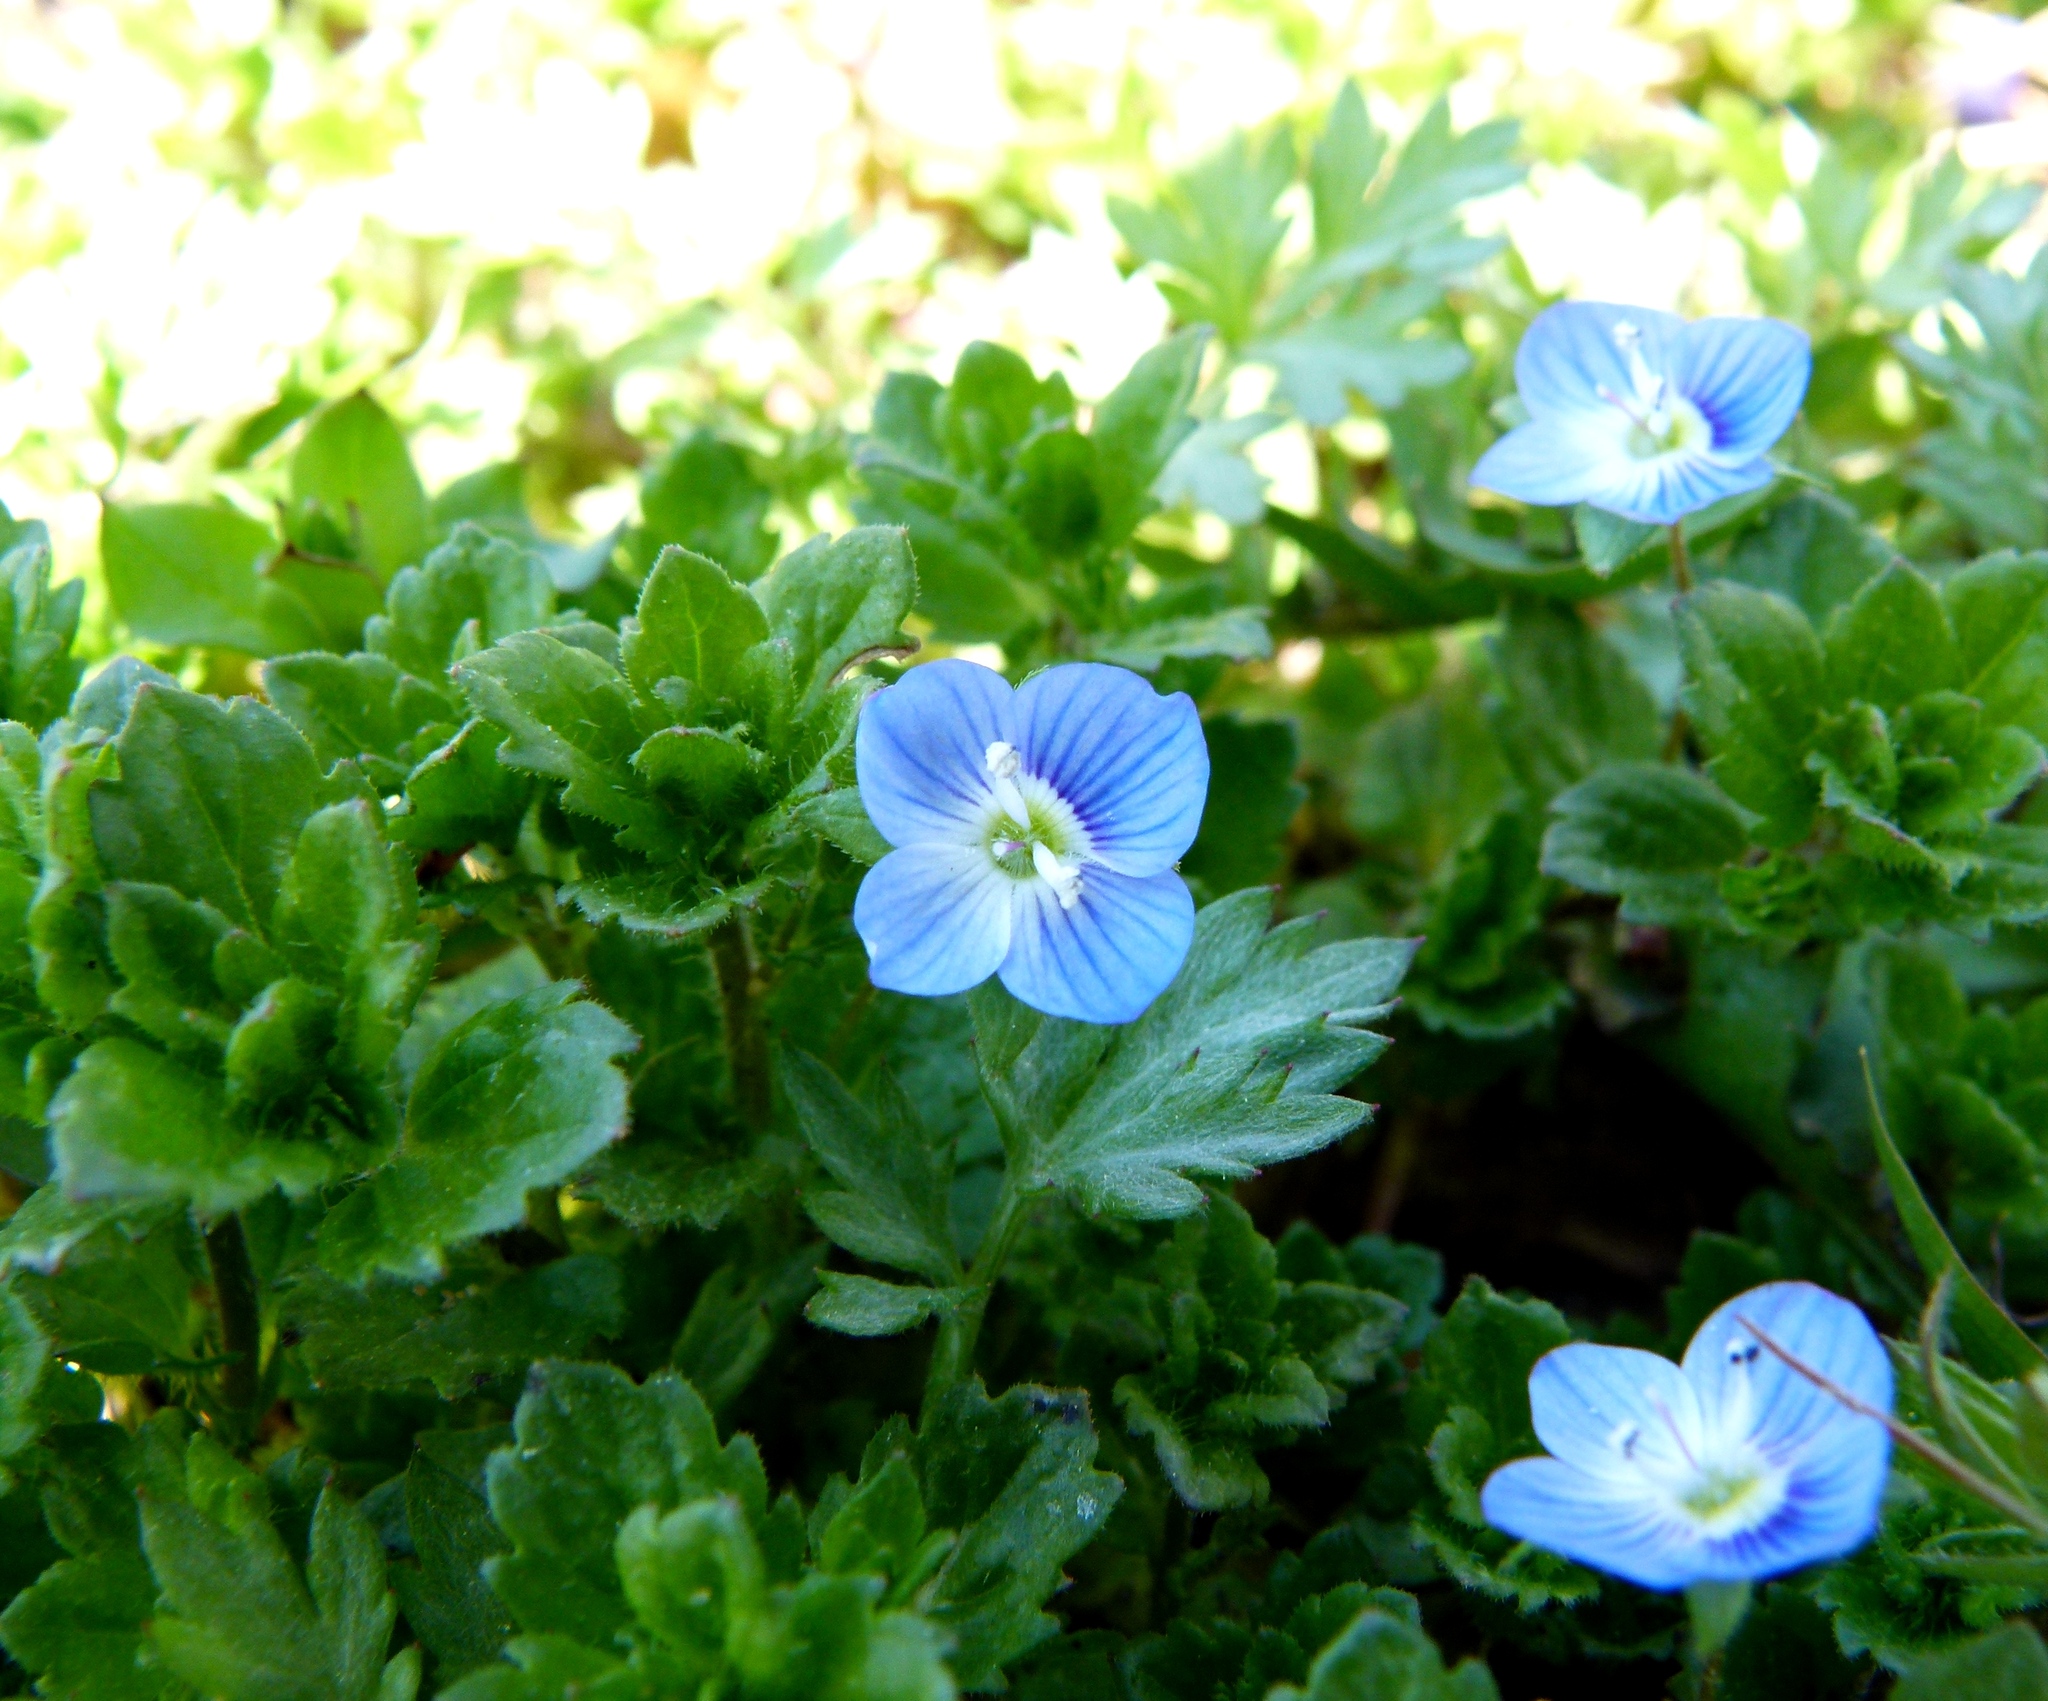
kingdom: Plantae
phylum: Tracheophyta
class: Magnoliopsida
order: Lamiales
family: Plantaginaceae
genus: Veronica
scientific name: Veronica persica
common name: Common field-speedwell
